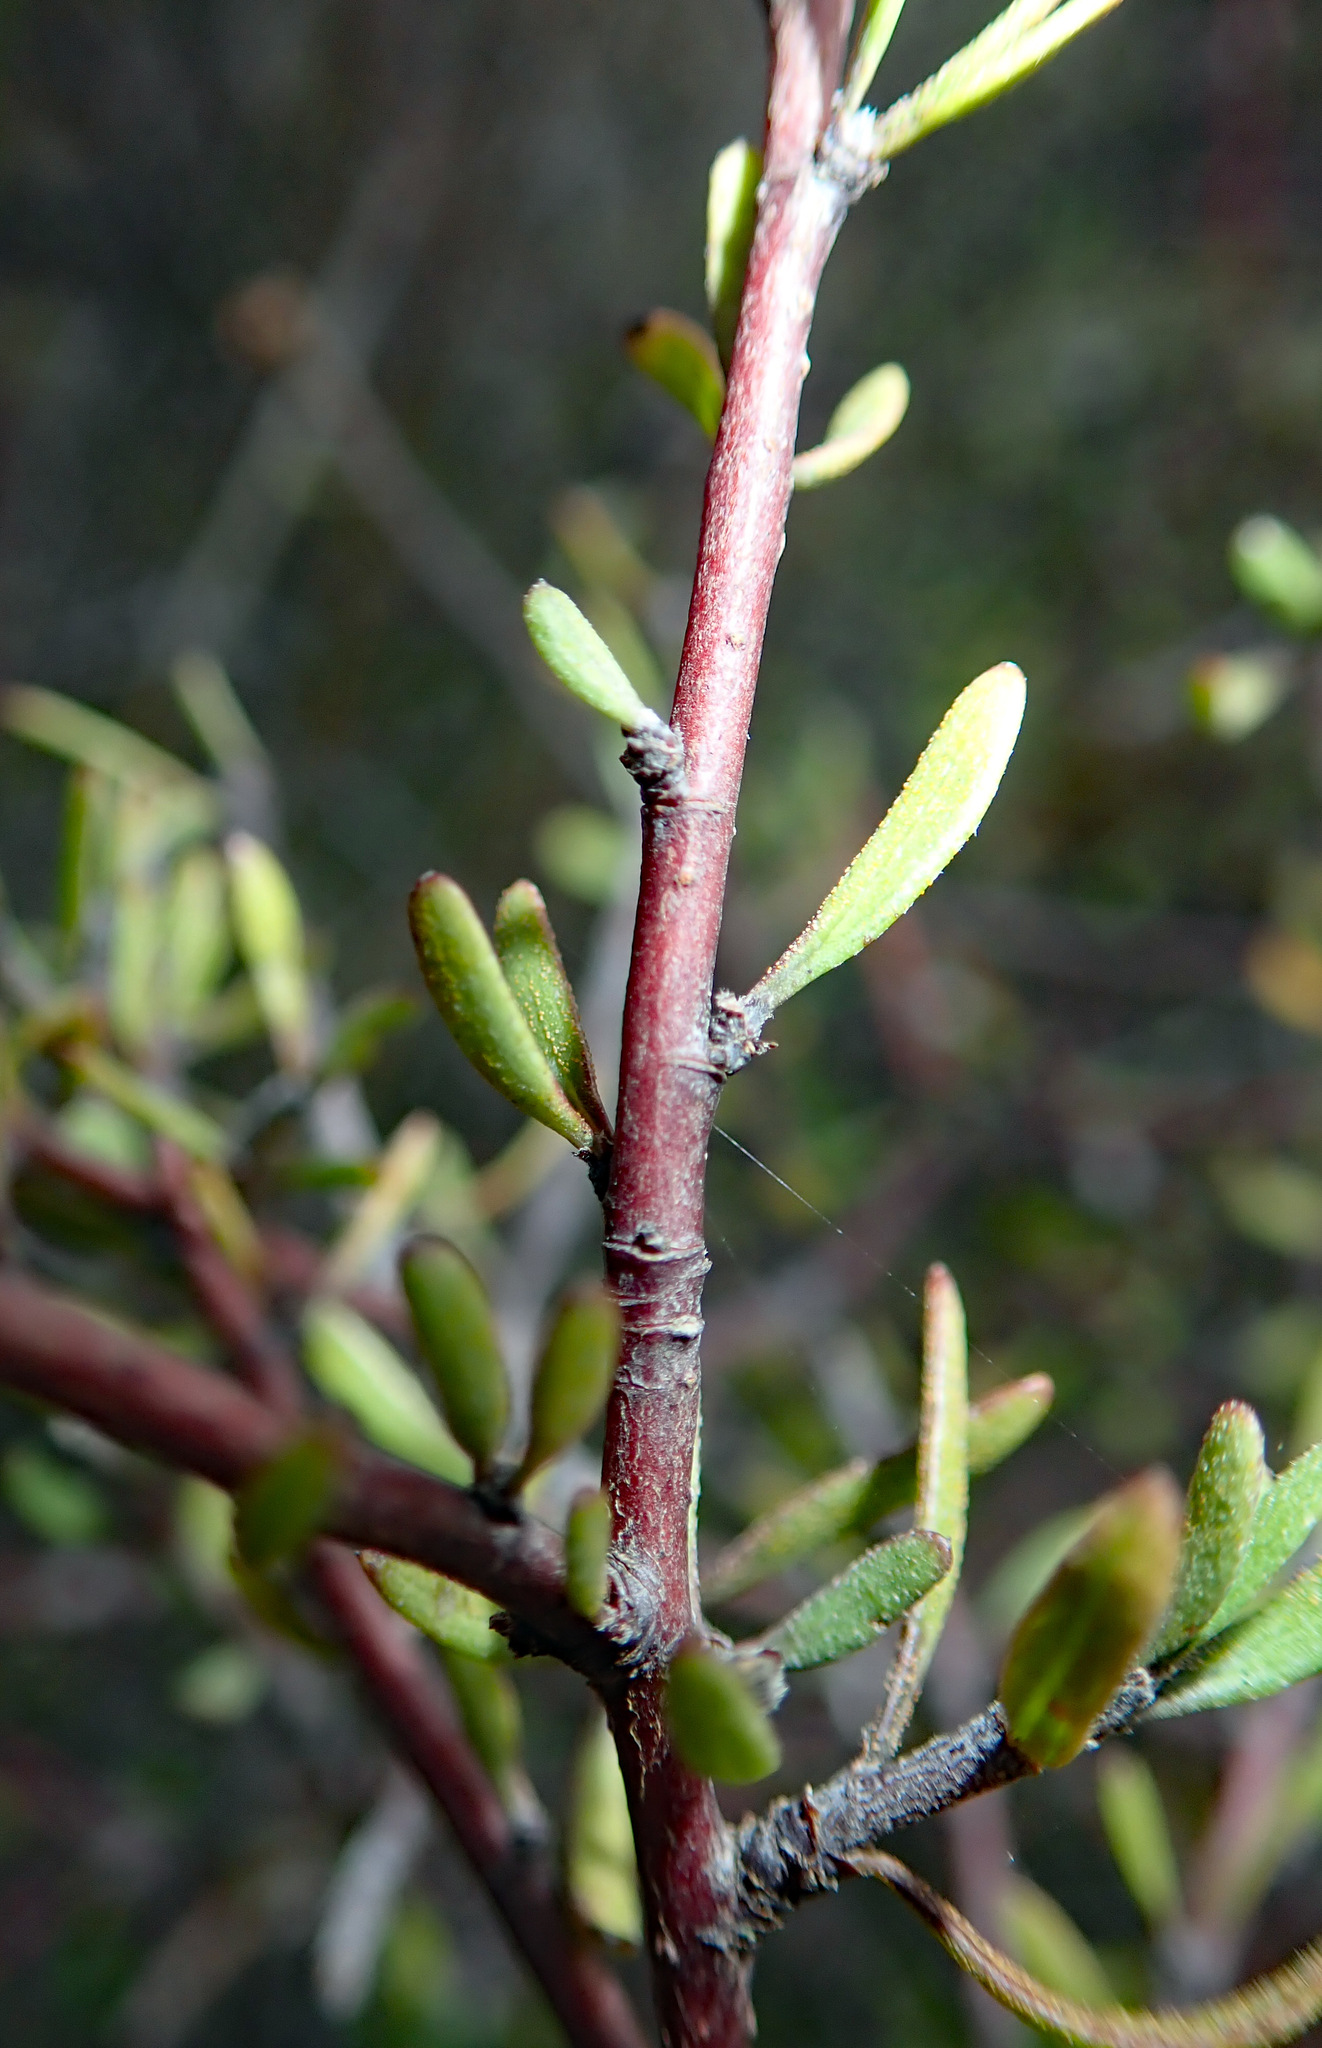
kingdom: Plantae
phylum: Tracheophyta
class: Magnoliopsida
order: Malvales
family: Malvaceae
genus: Plagianthus
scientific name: Plagianthus divaricatus
